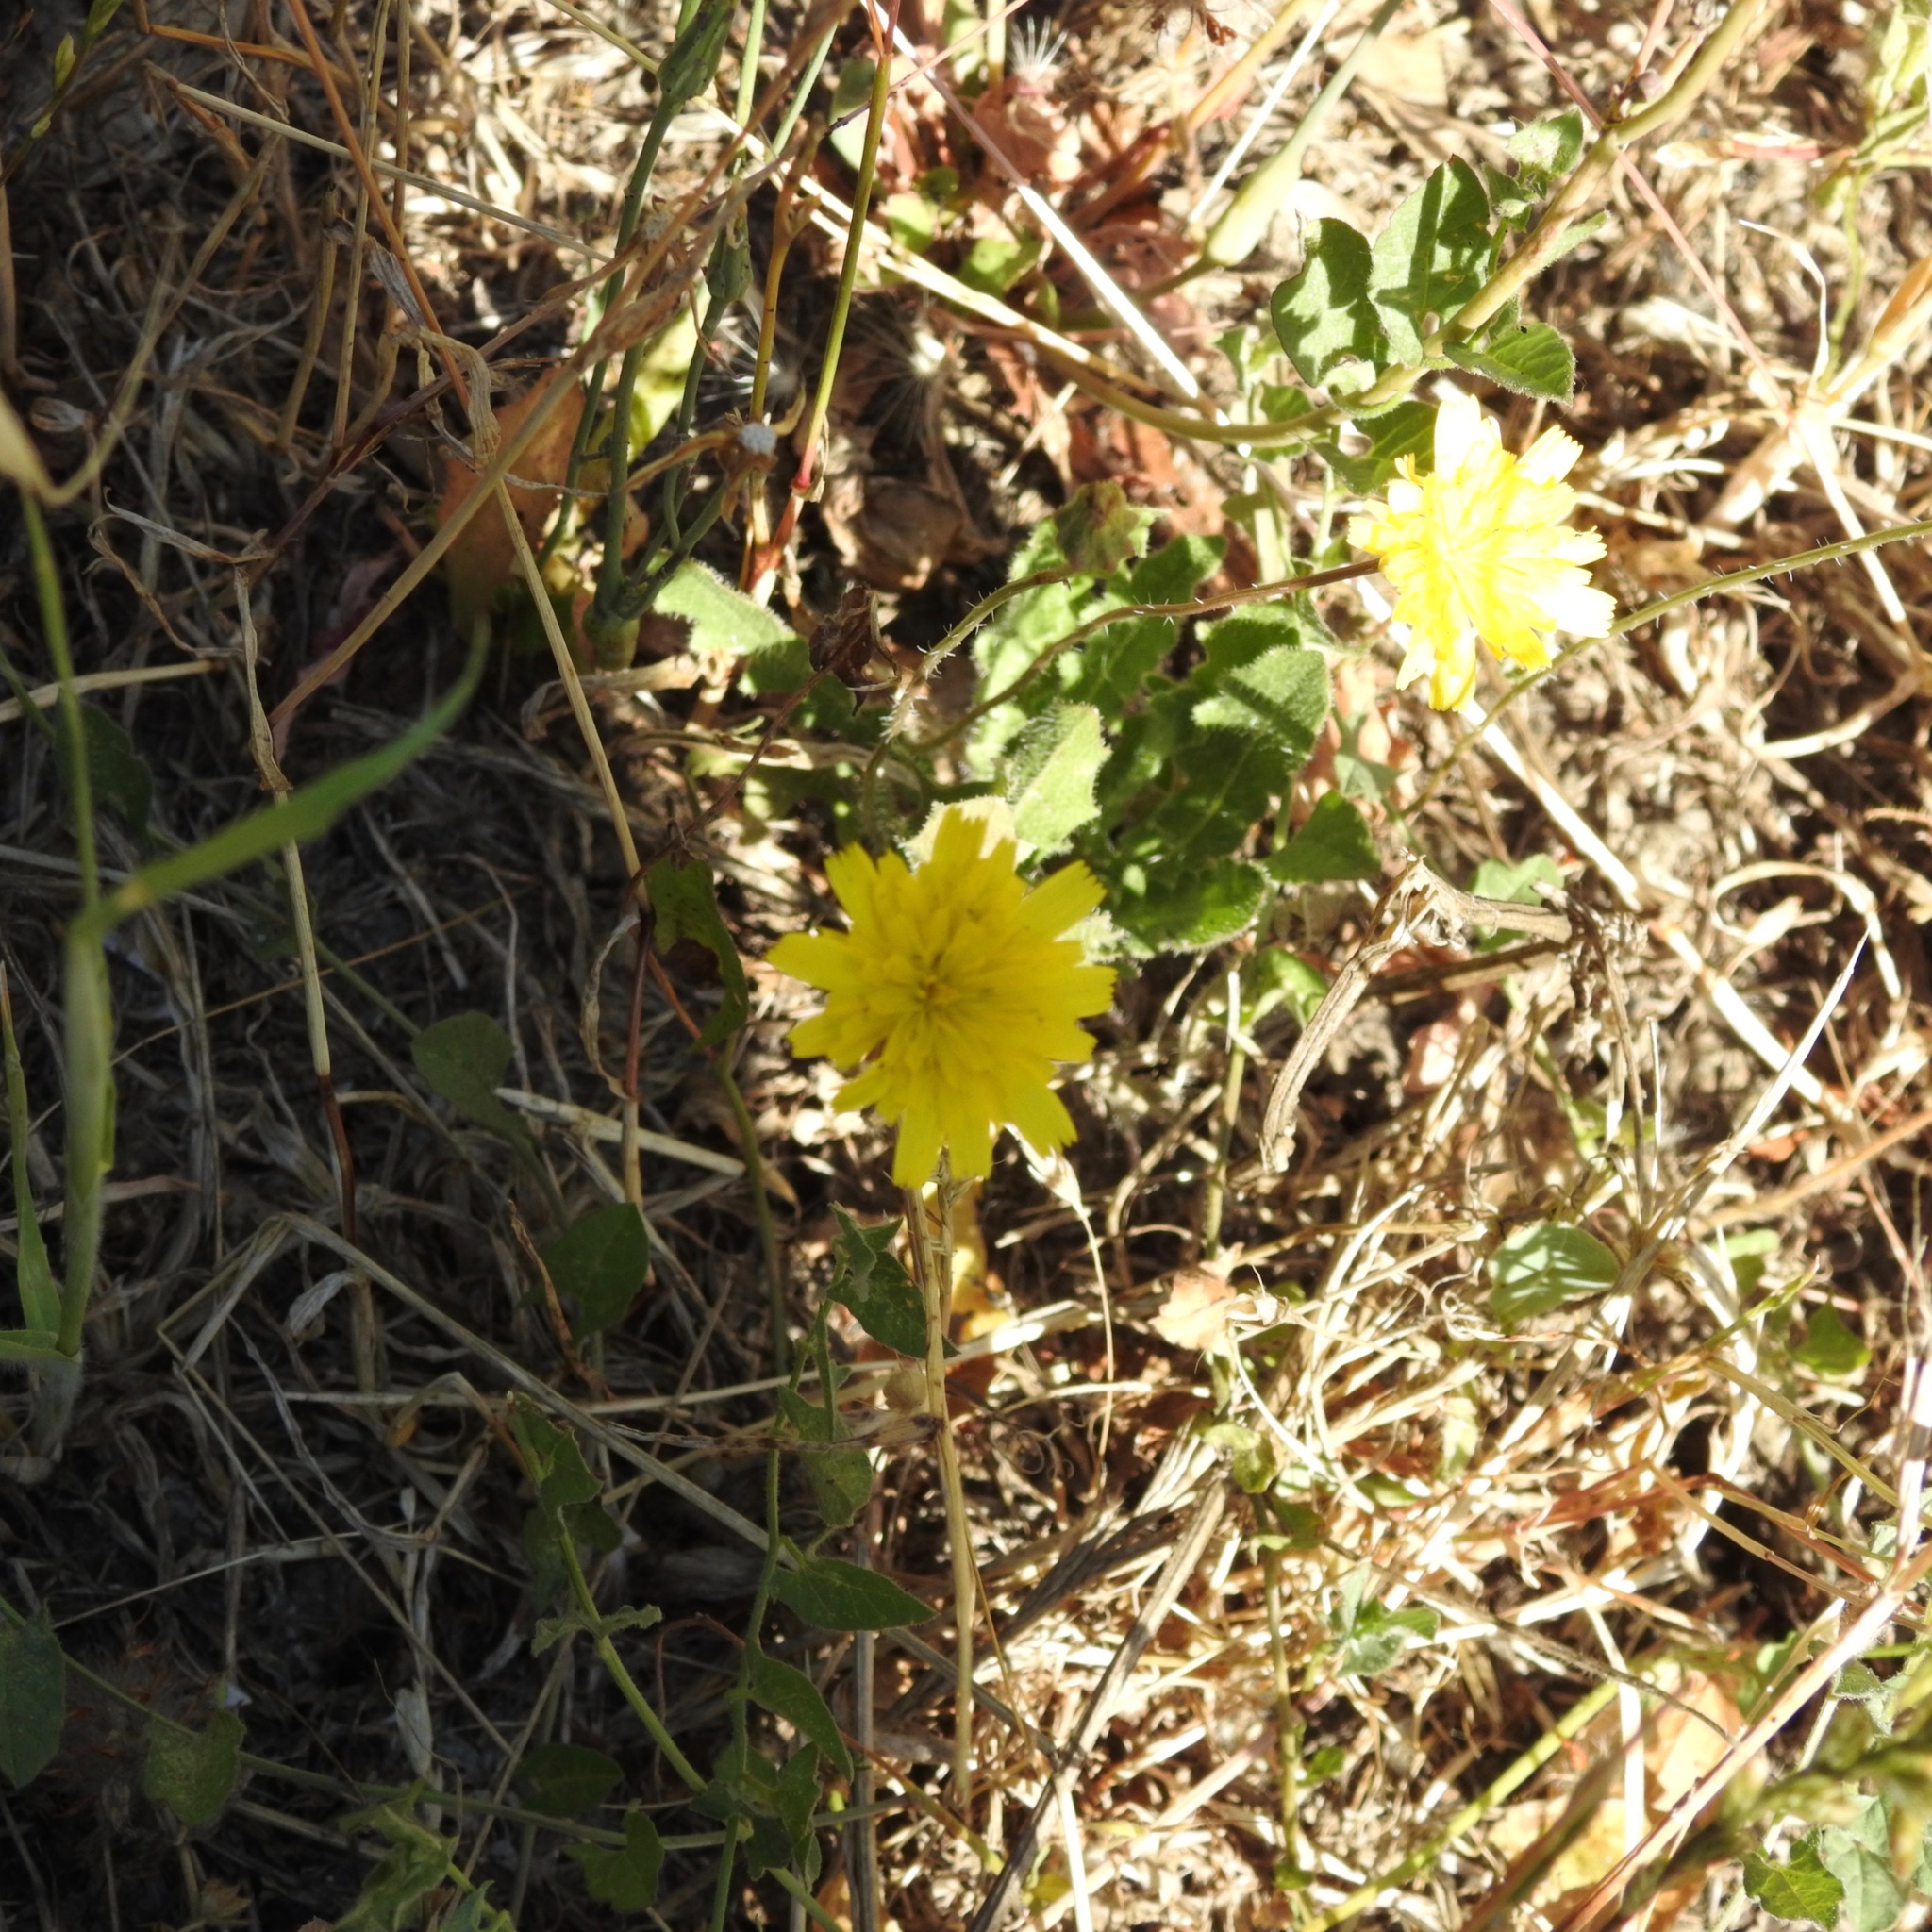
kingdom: Plantae
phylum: Tracheophyta
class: Magnoliopsida
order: Asterales
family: Asteraceae
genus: Hypochaeris
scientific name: Hypochaeris radicata
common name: Flatweed
